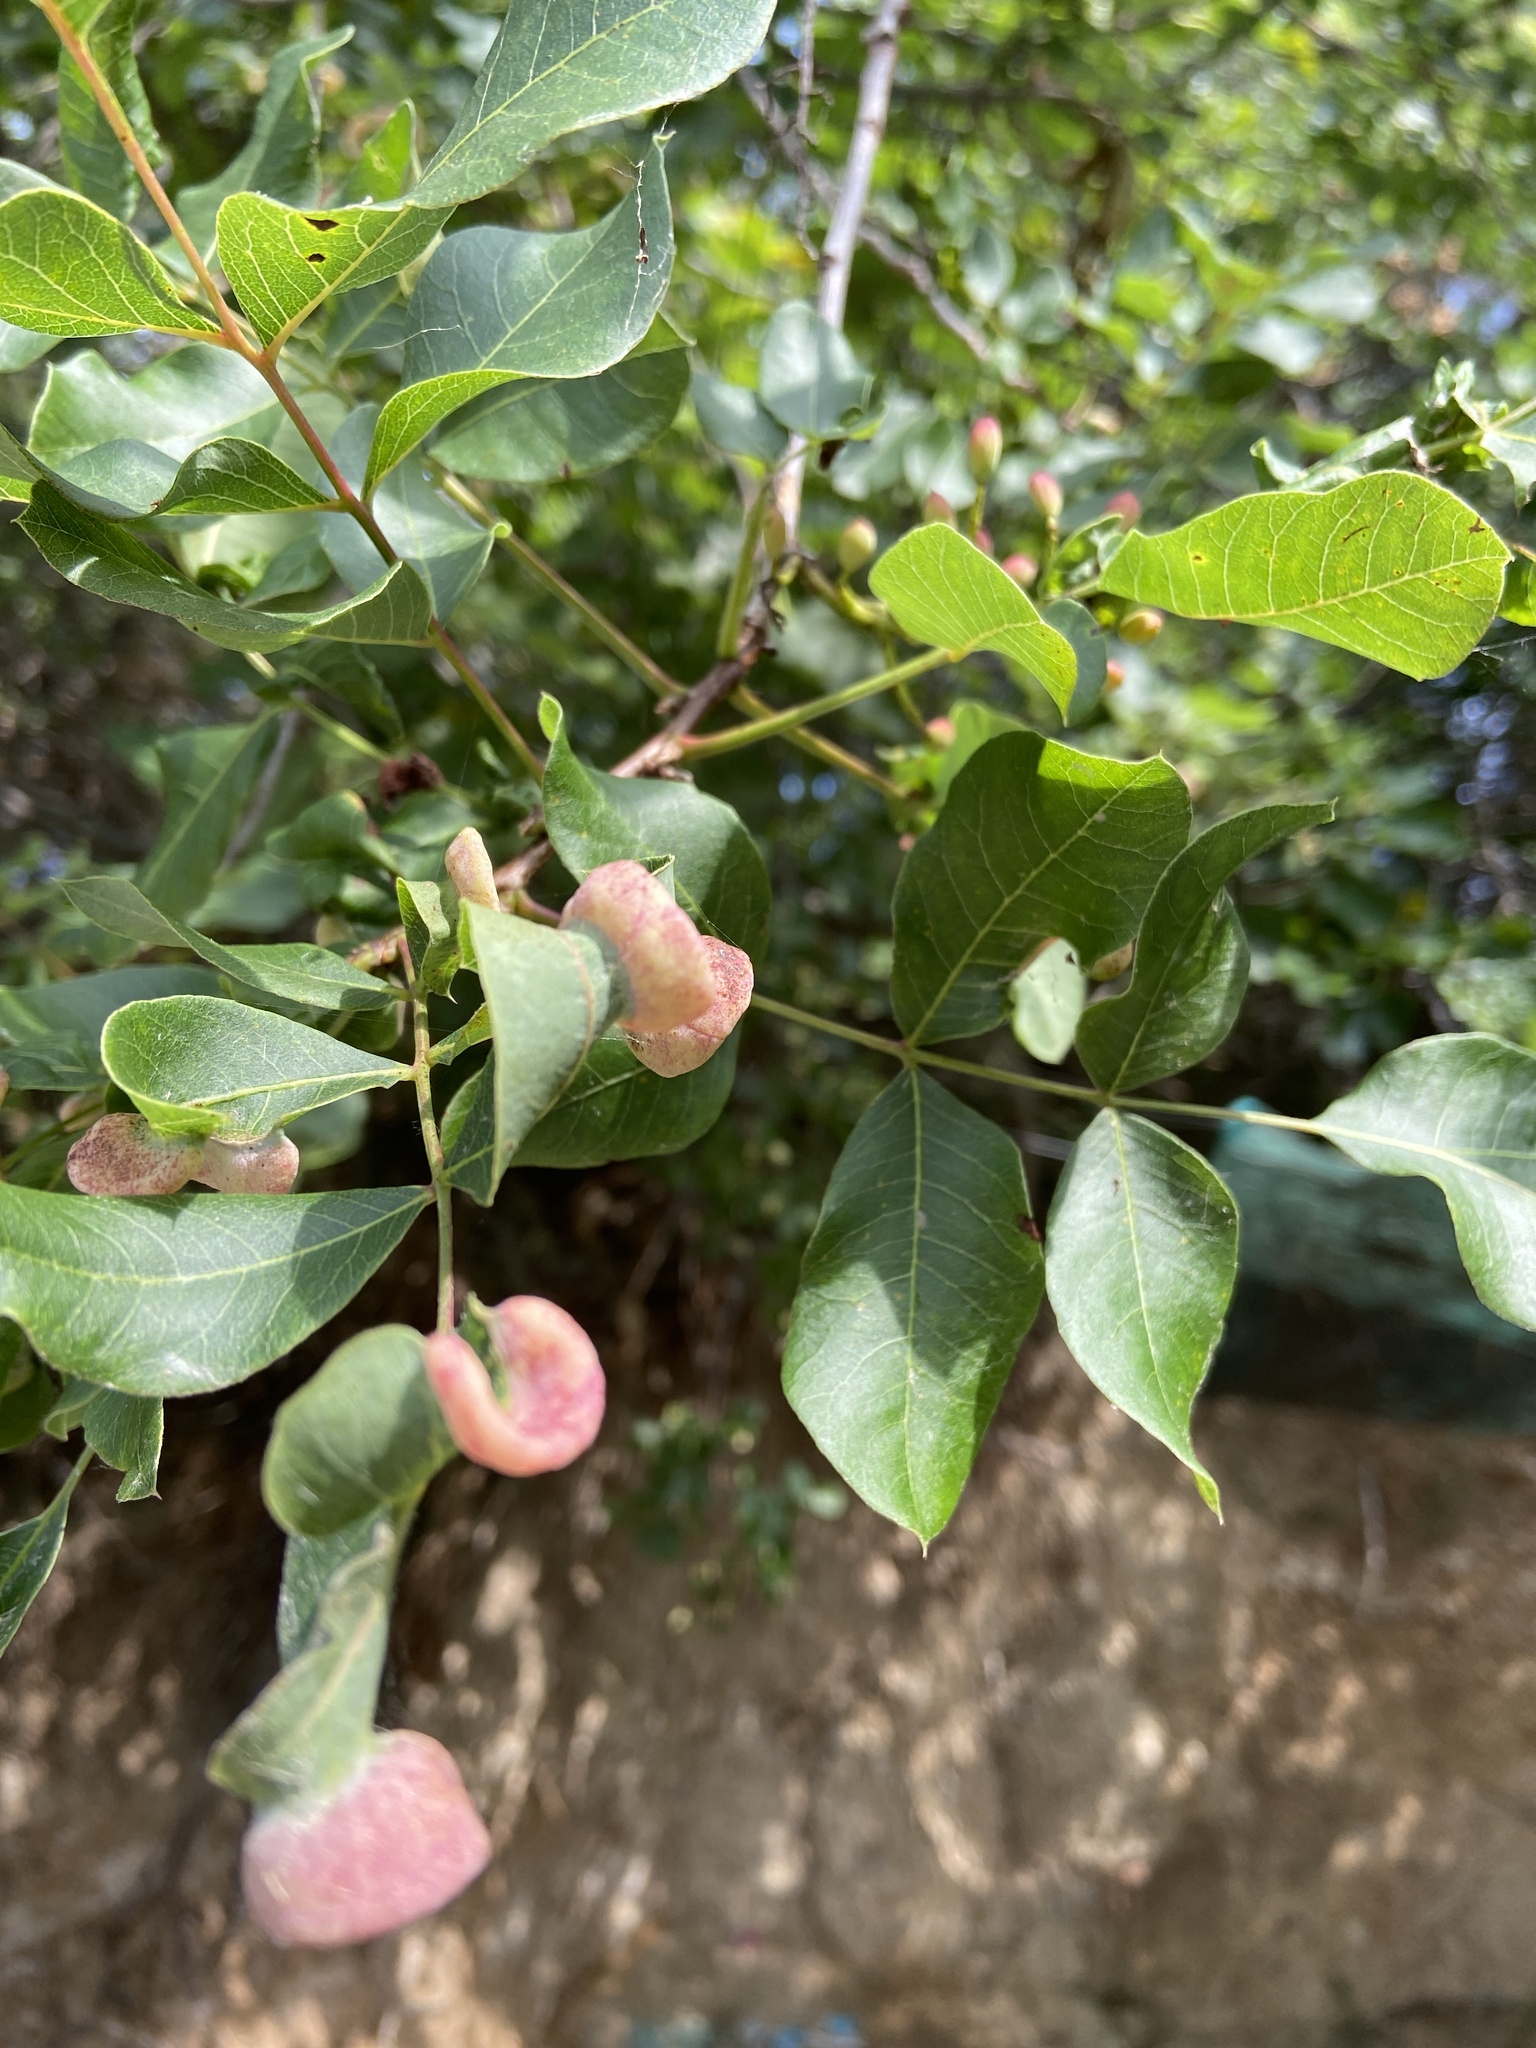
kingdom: Plantae
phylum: Tracheophyta
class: Magnoliopsida
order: Sapindales
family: Anacardiaceae
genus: Pistacia
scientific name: Pistacia terebinthus
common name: Terebinth
